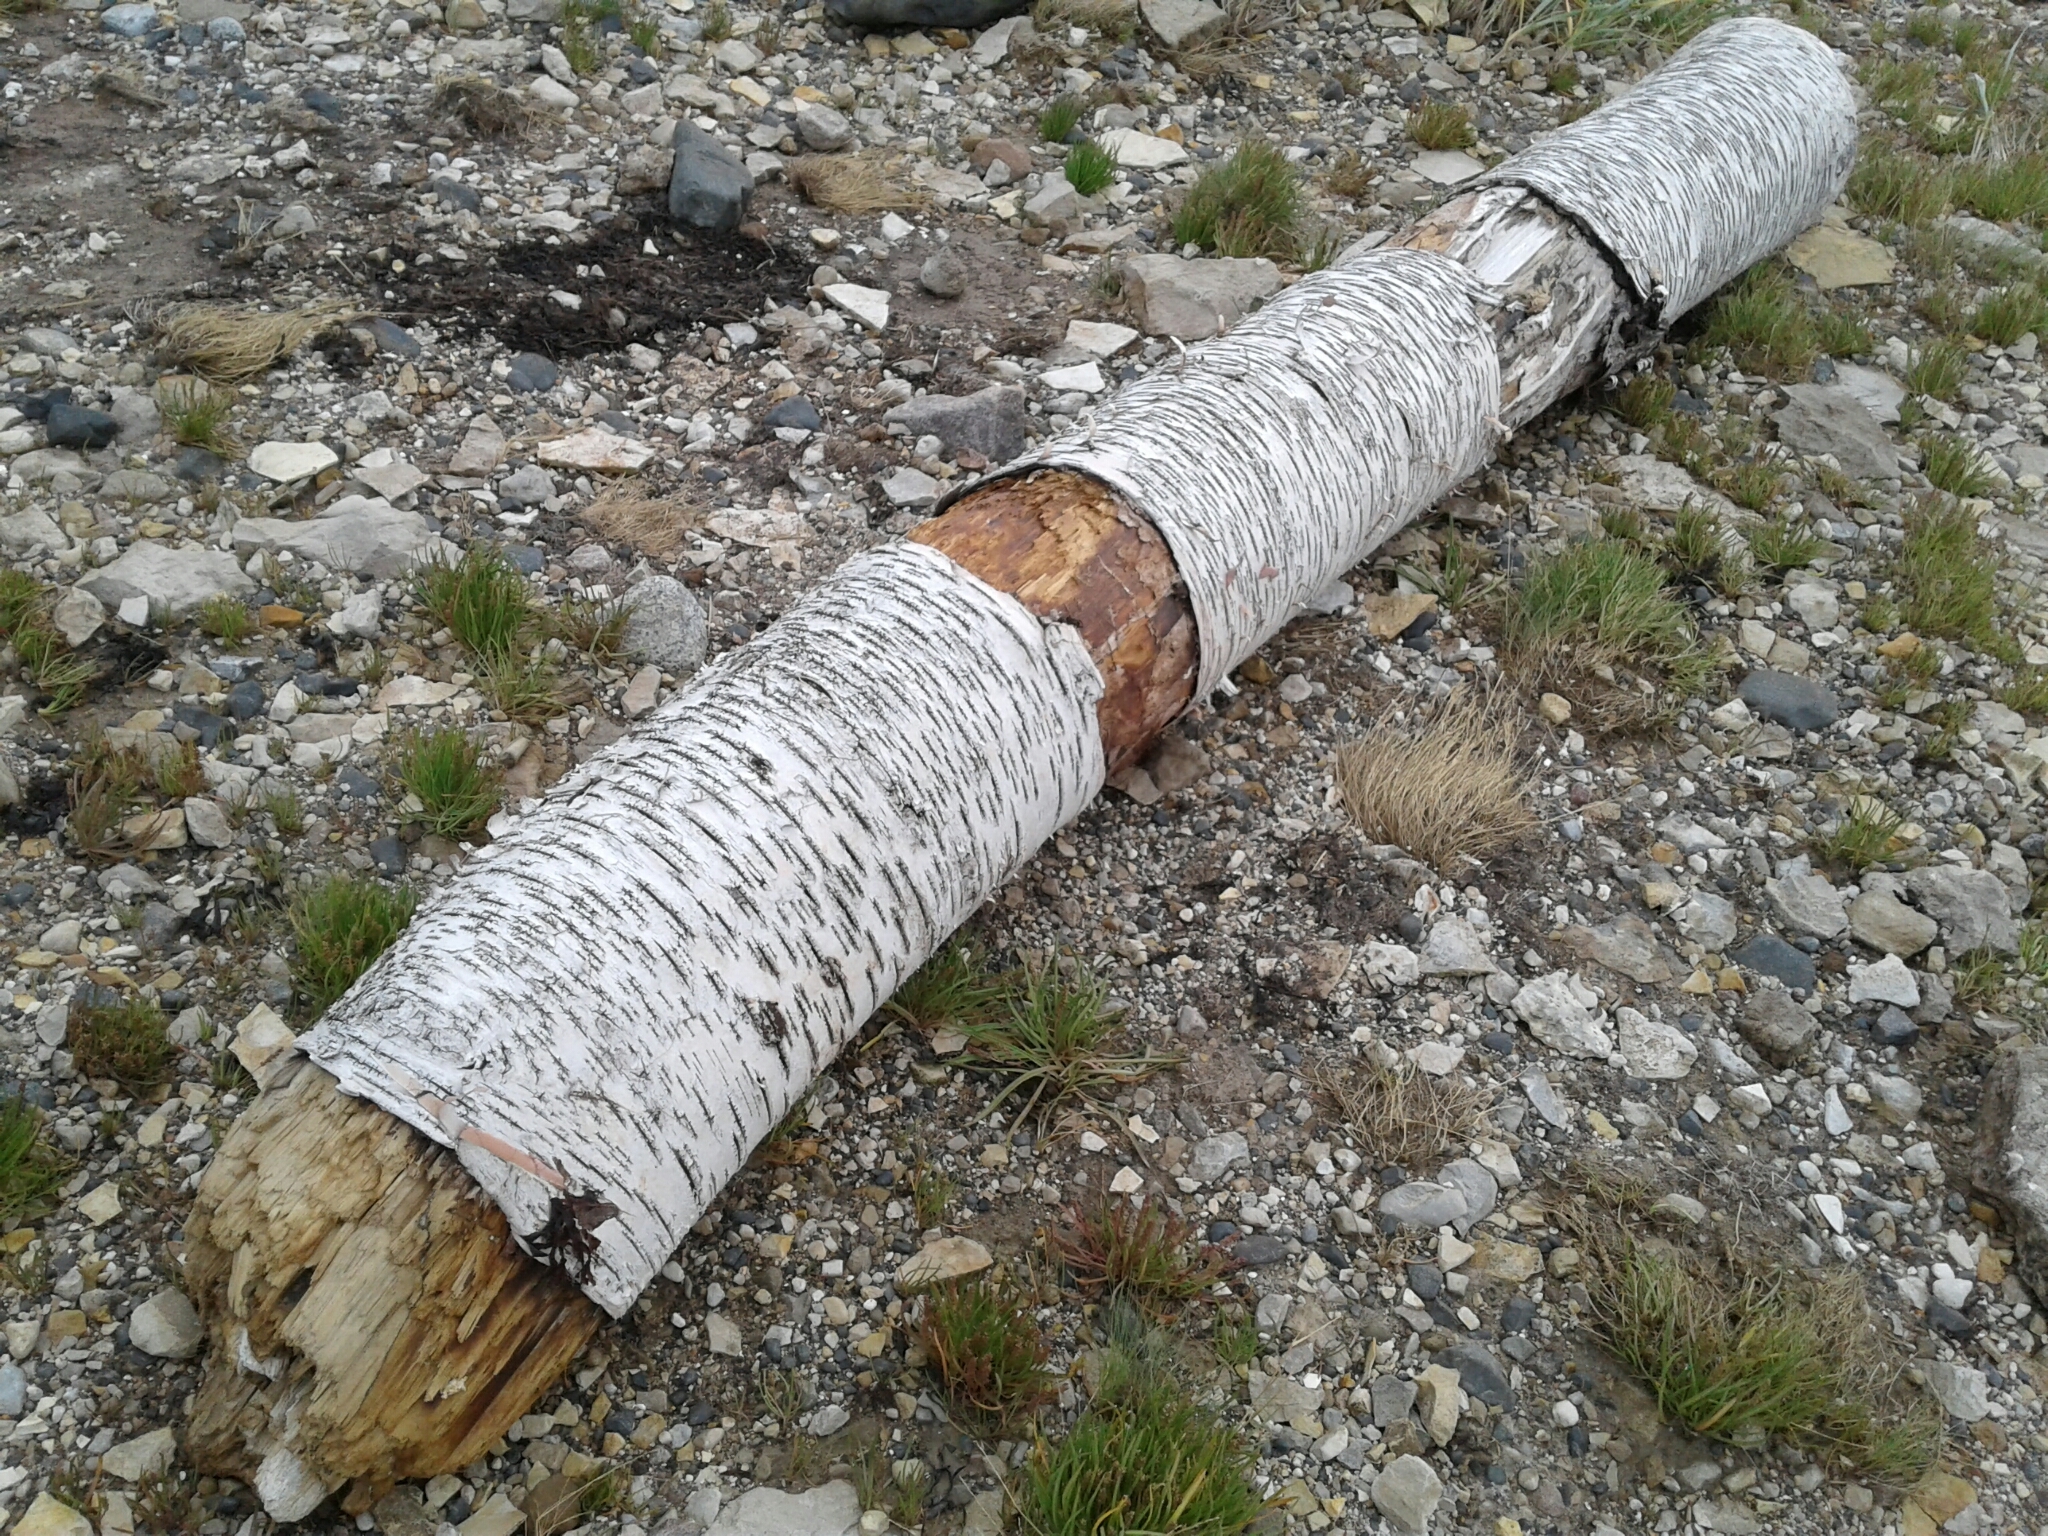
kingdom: Plantae
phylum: Tracheophyta
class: Magnoliopsida
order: Fagales
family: Betulaceae
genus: Betula
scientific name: Betula papyrifera
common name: Paper birch
